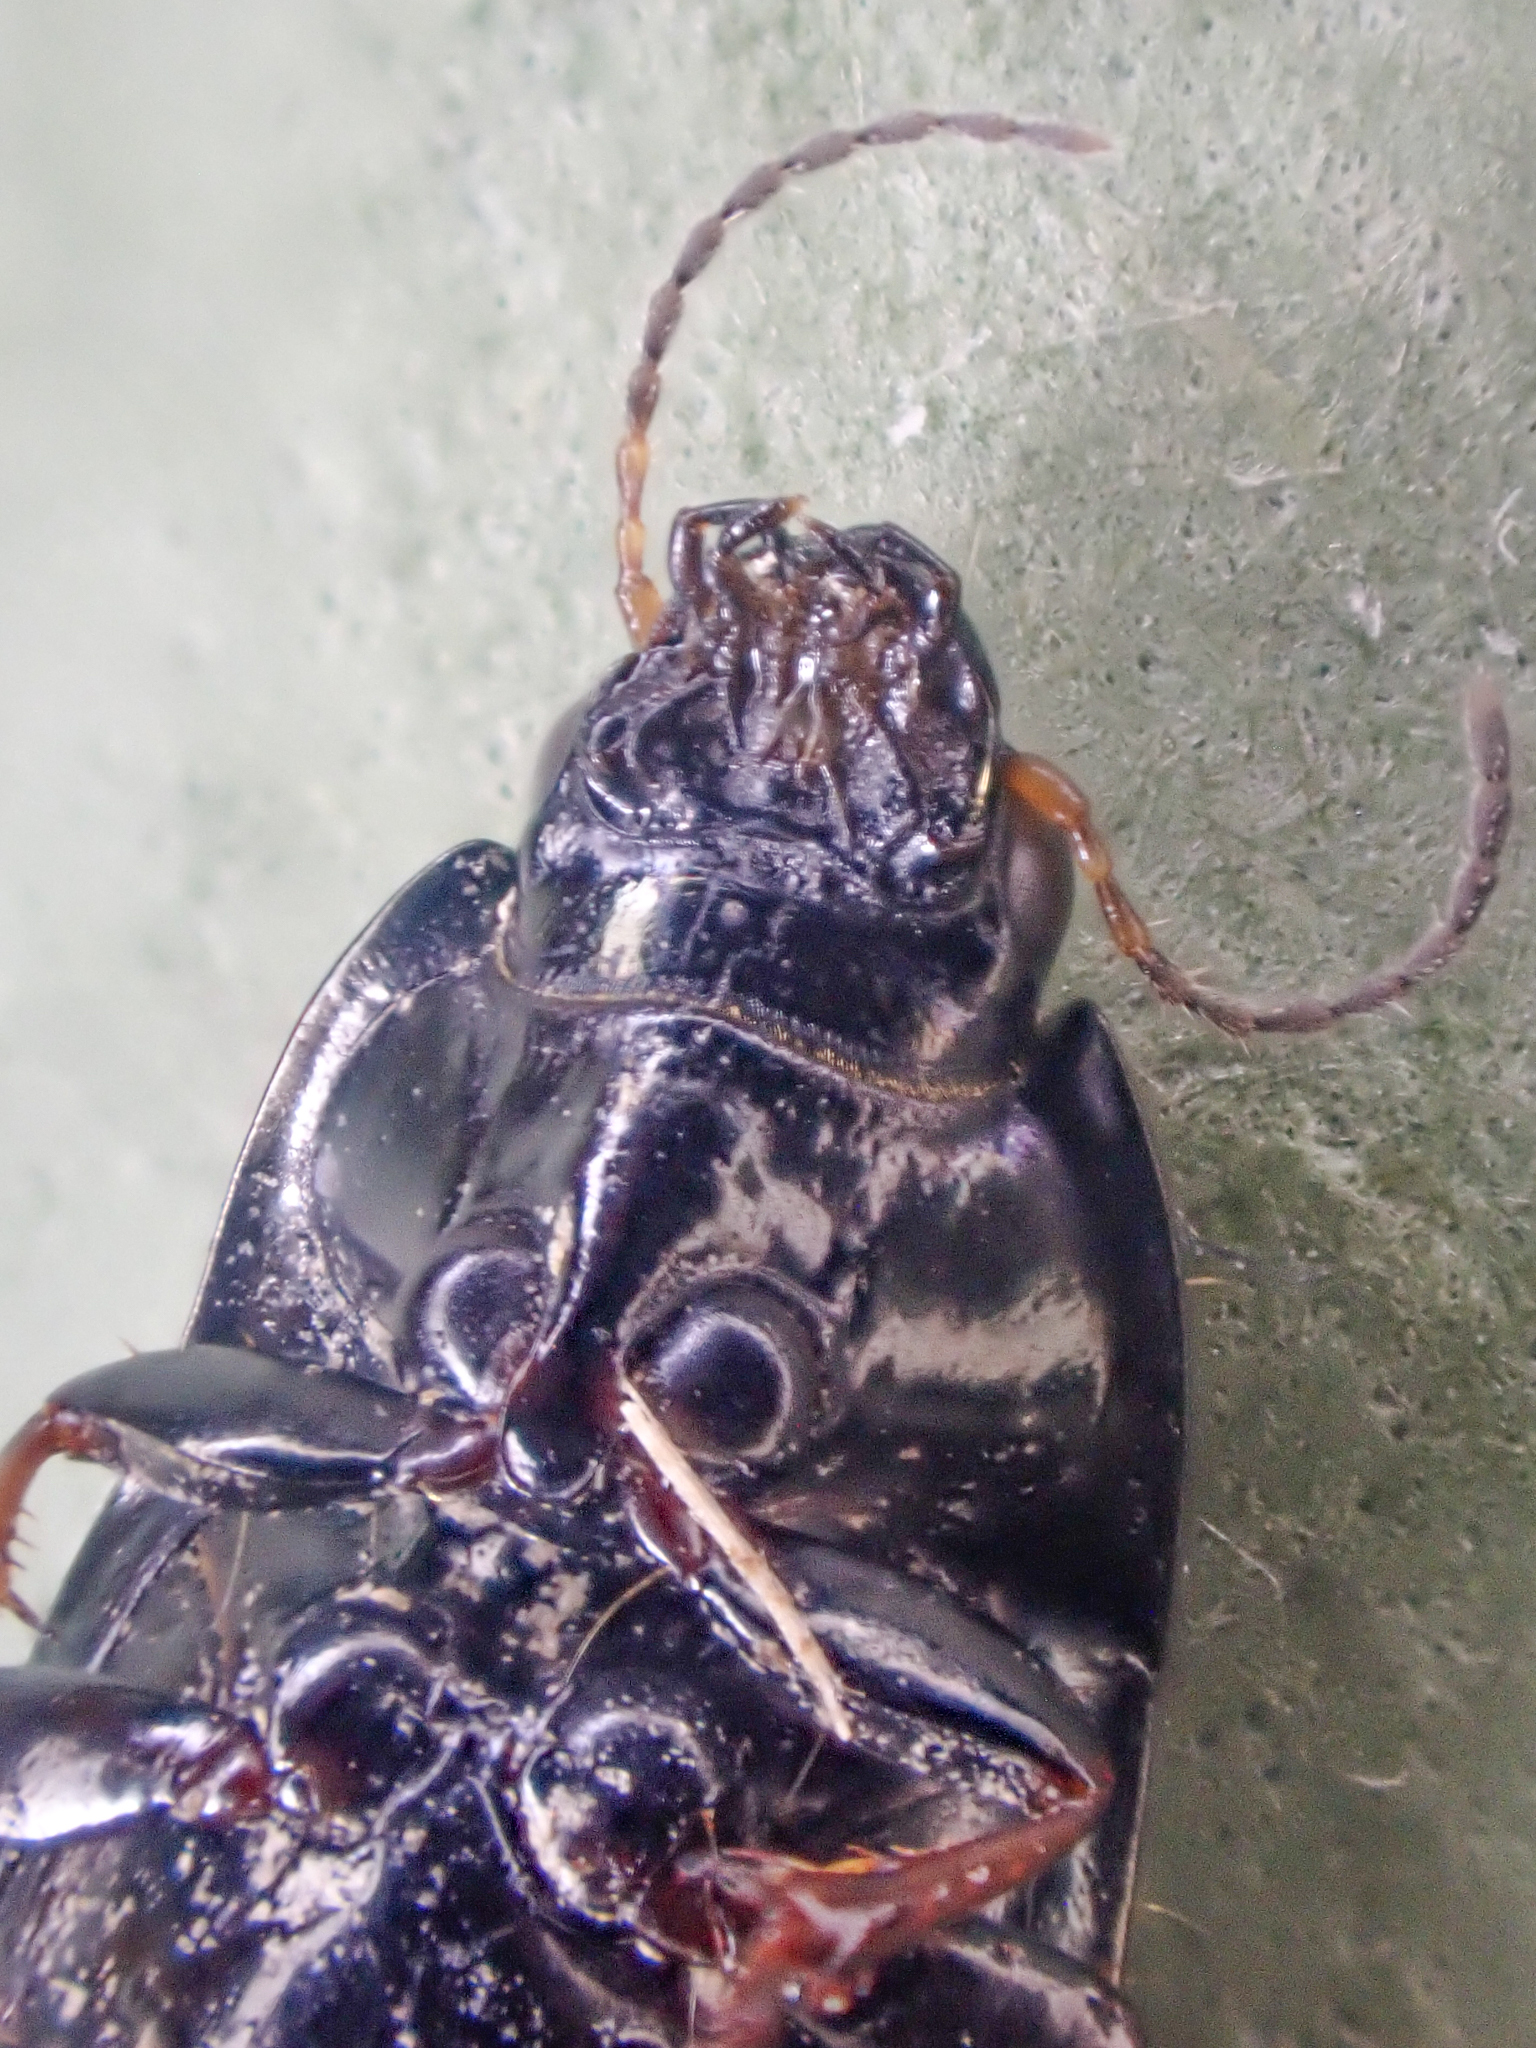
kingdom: Animalia
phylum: Arthropoda
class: Insecta
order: Coleoptera
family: Carabidae
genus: Amara
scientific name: Amara aenea
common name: Common sun beetle
